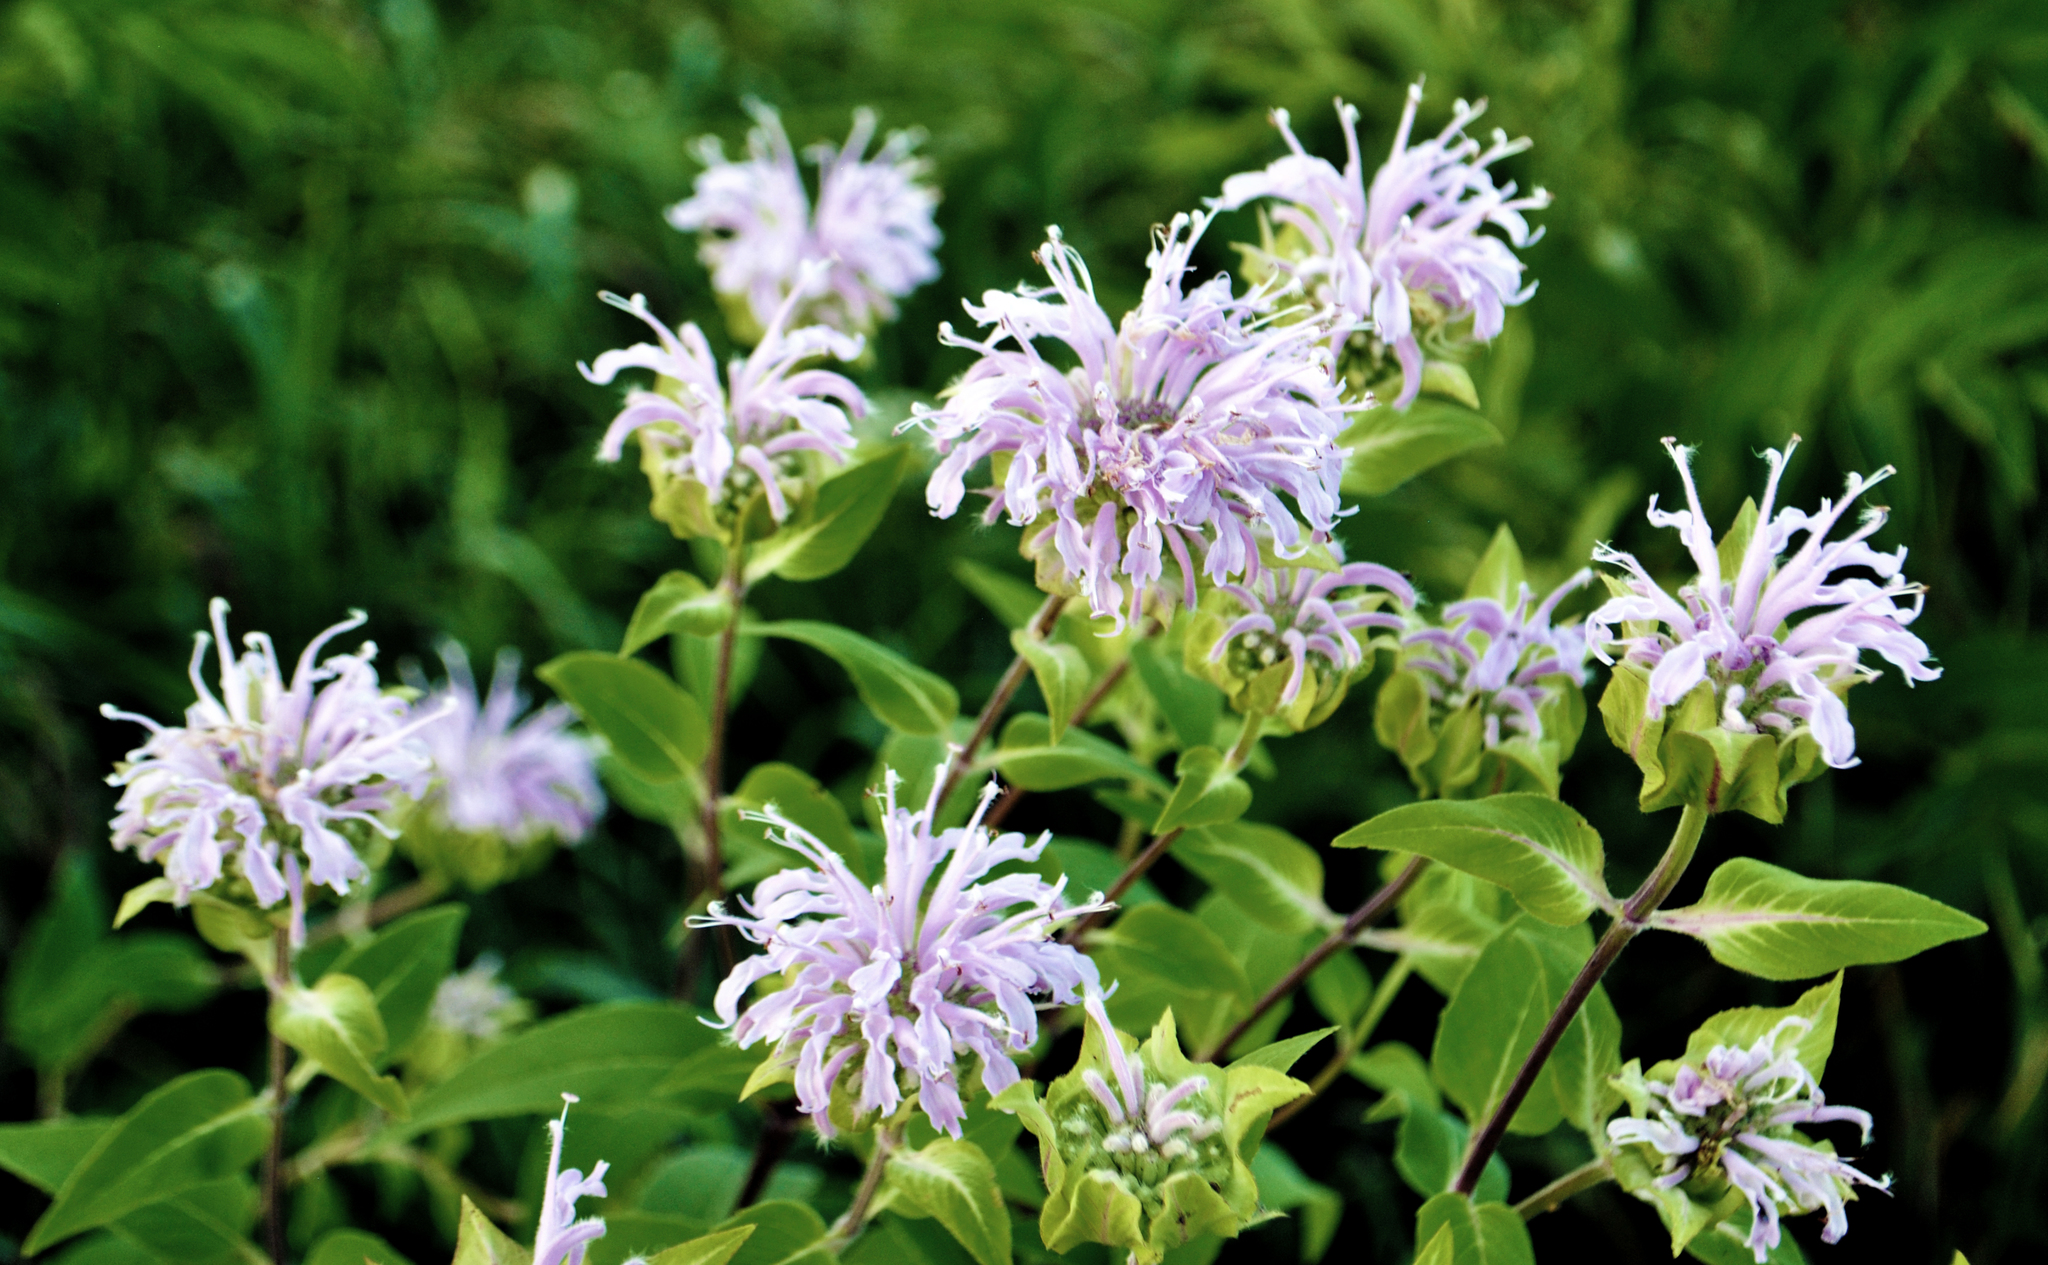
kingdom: Plantae
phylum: Tracheophyta
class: Magnoliopsida
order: Lamiales
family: Lamiaceae
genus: Monarda
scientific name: Monarda fistulosa
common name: Purple beebalm
